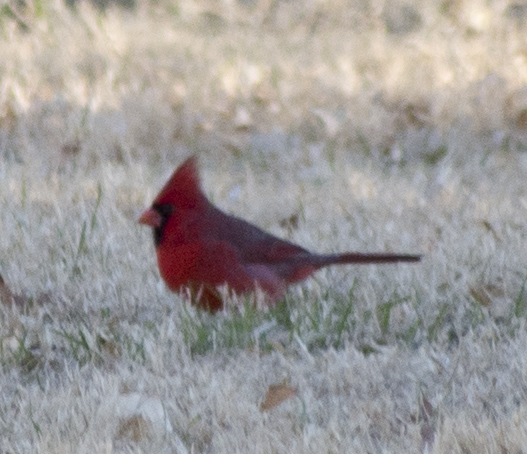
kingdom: Animalia
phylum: Chordata
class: Aves
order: Passeriformes
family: Cardinalidae
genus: Cardinalis
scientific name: Cardinalis cardinalis
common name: Northern cardinal
